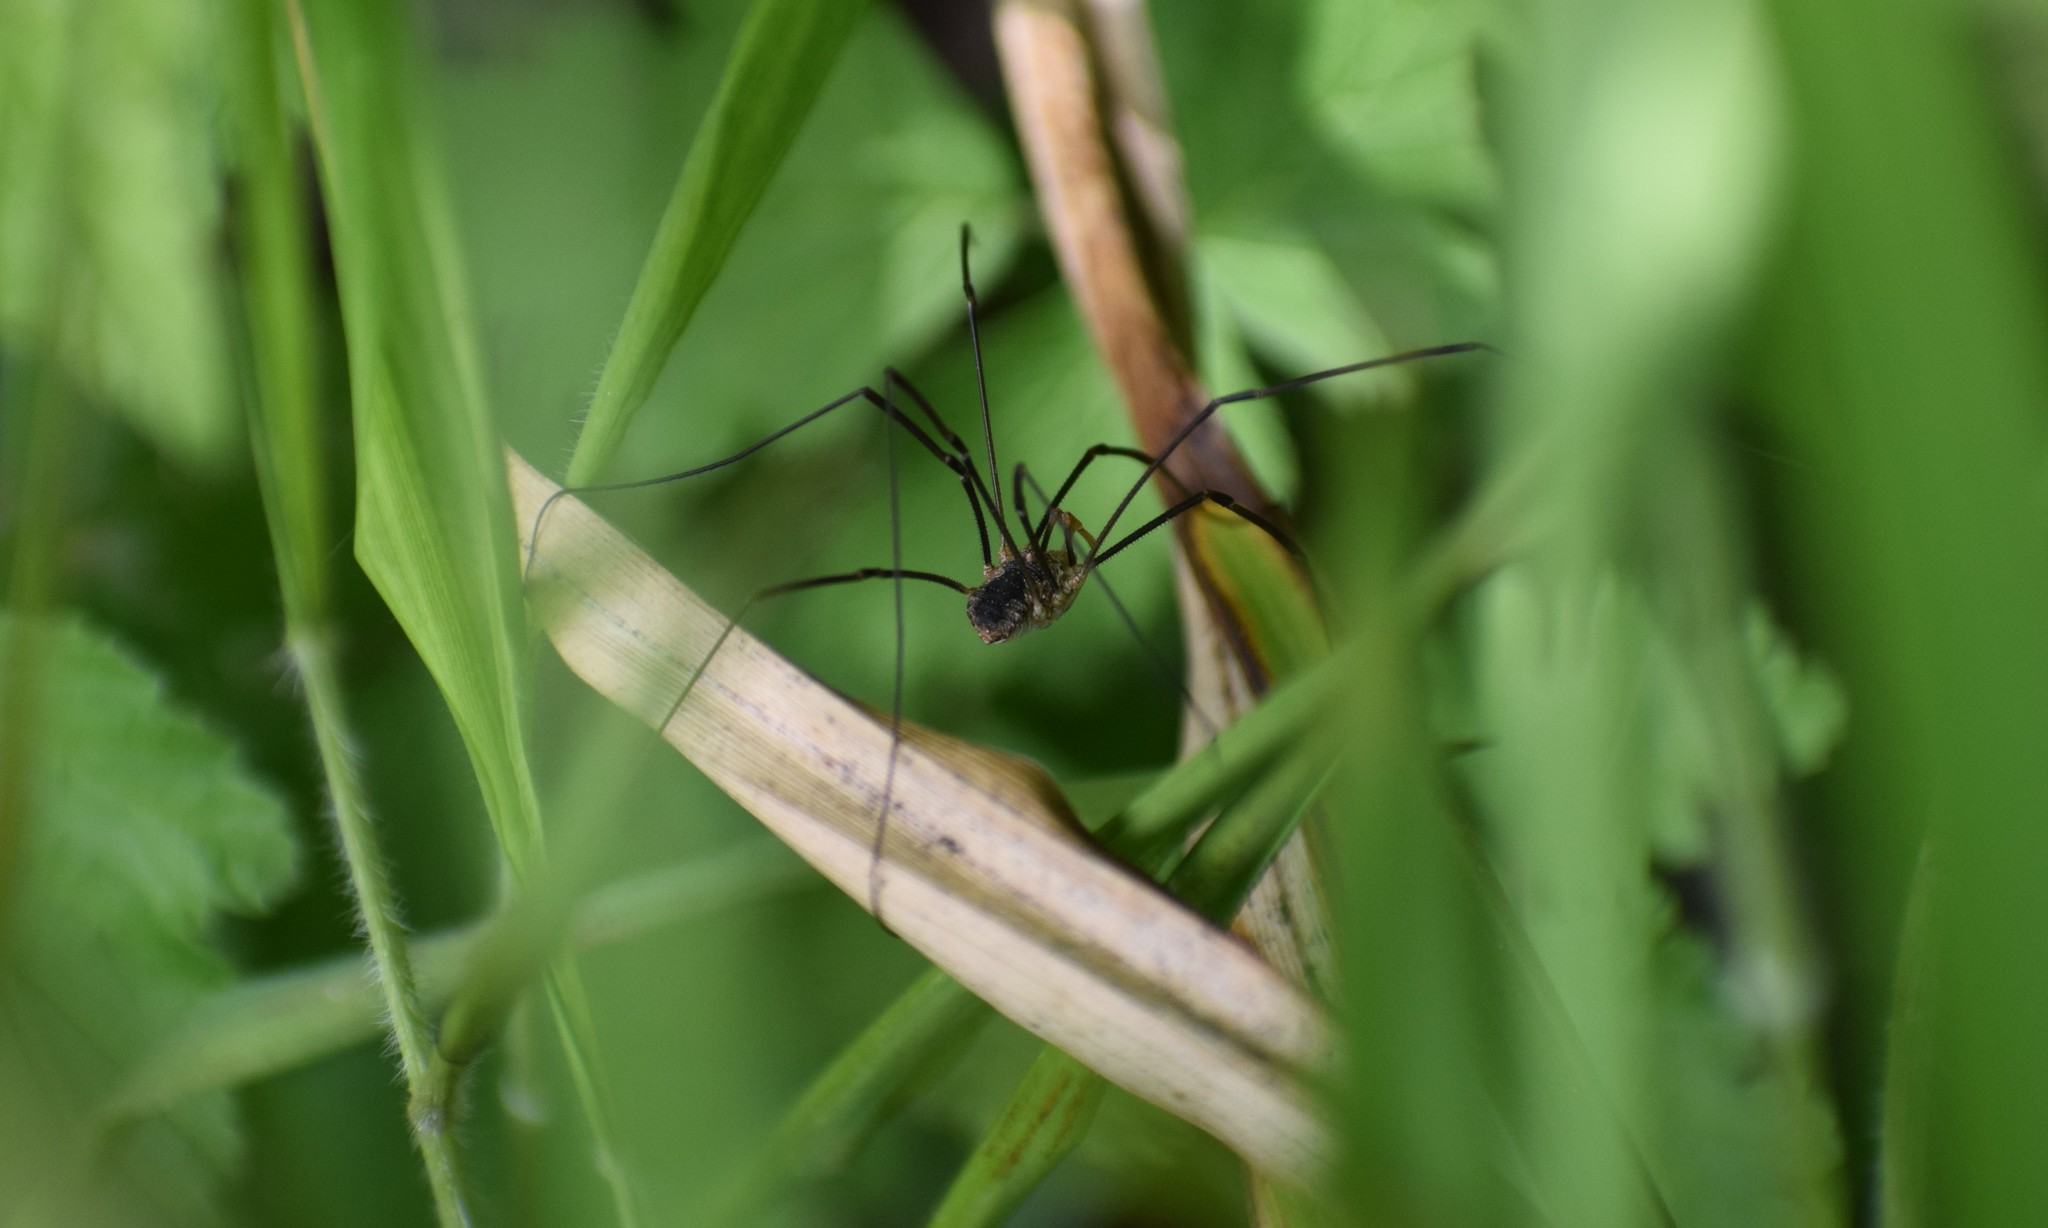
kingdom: Animalia
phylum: Arthropoda
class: Arachnida
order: Opiliones
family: Phalangiidae
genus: Phalangium
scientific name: Phalangium opilio
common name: Daddy longleg
